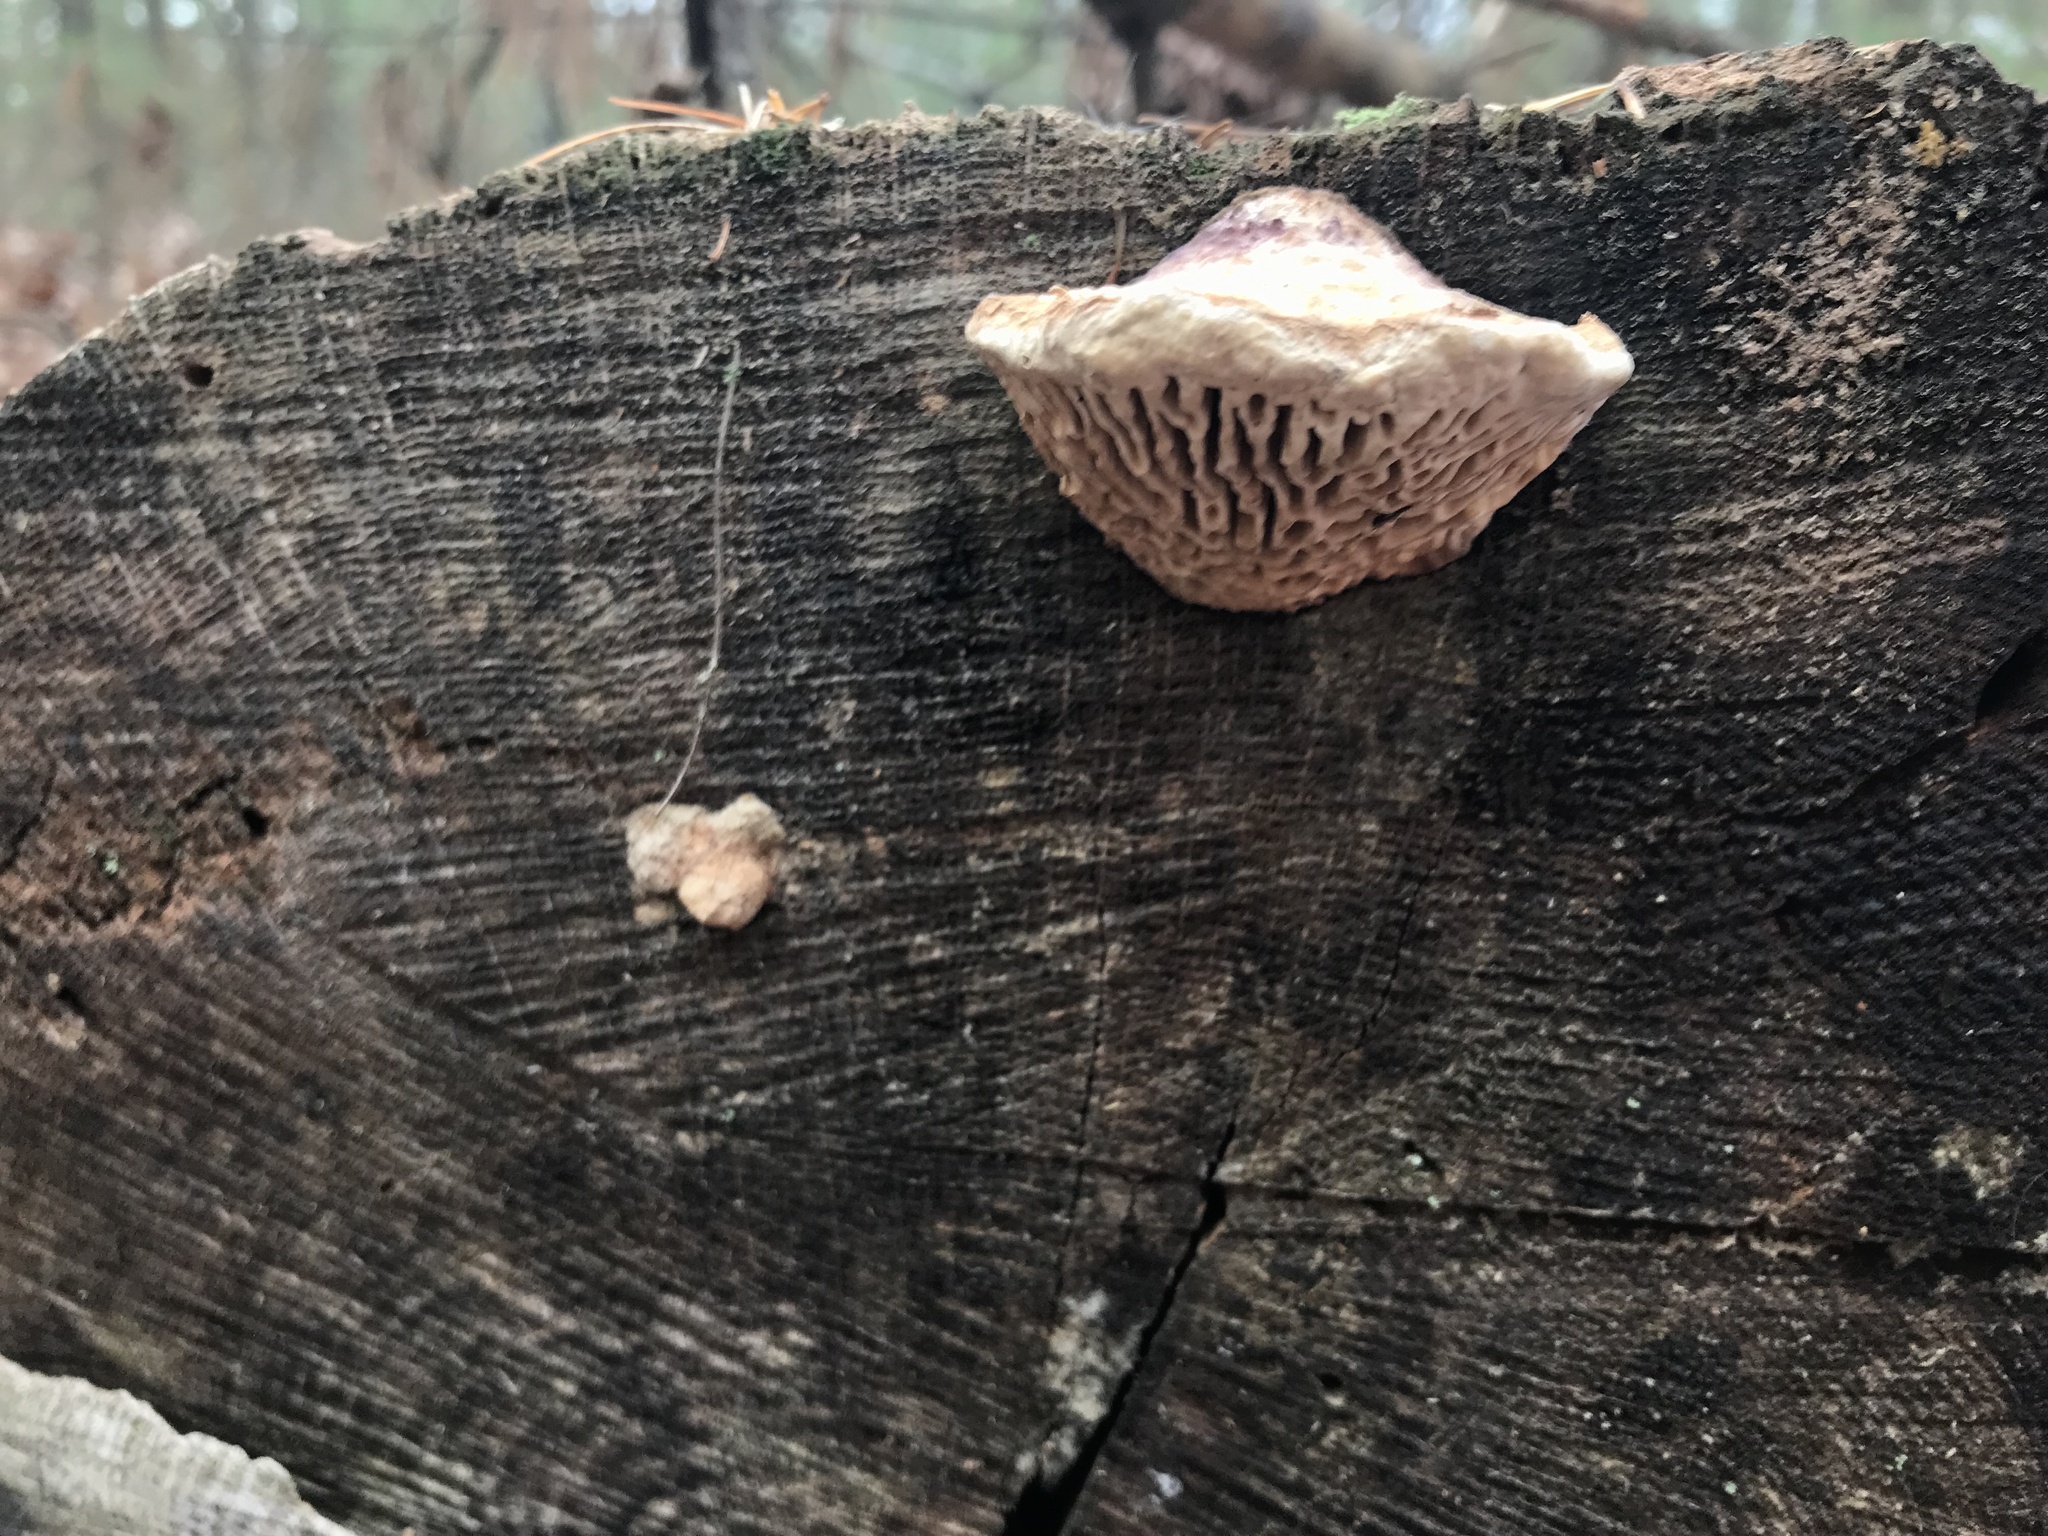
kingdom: Fungi
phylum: Basidiomycota
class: Agaricomycetes
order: Polyporales
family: Fomitopsidaceae
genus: Fomitopsis
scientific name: Fomitopsis
